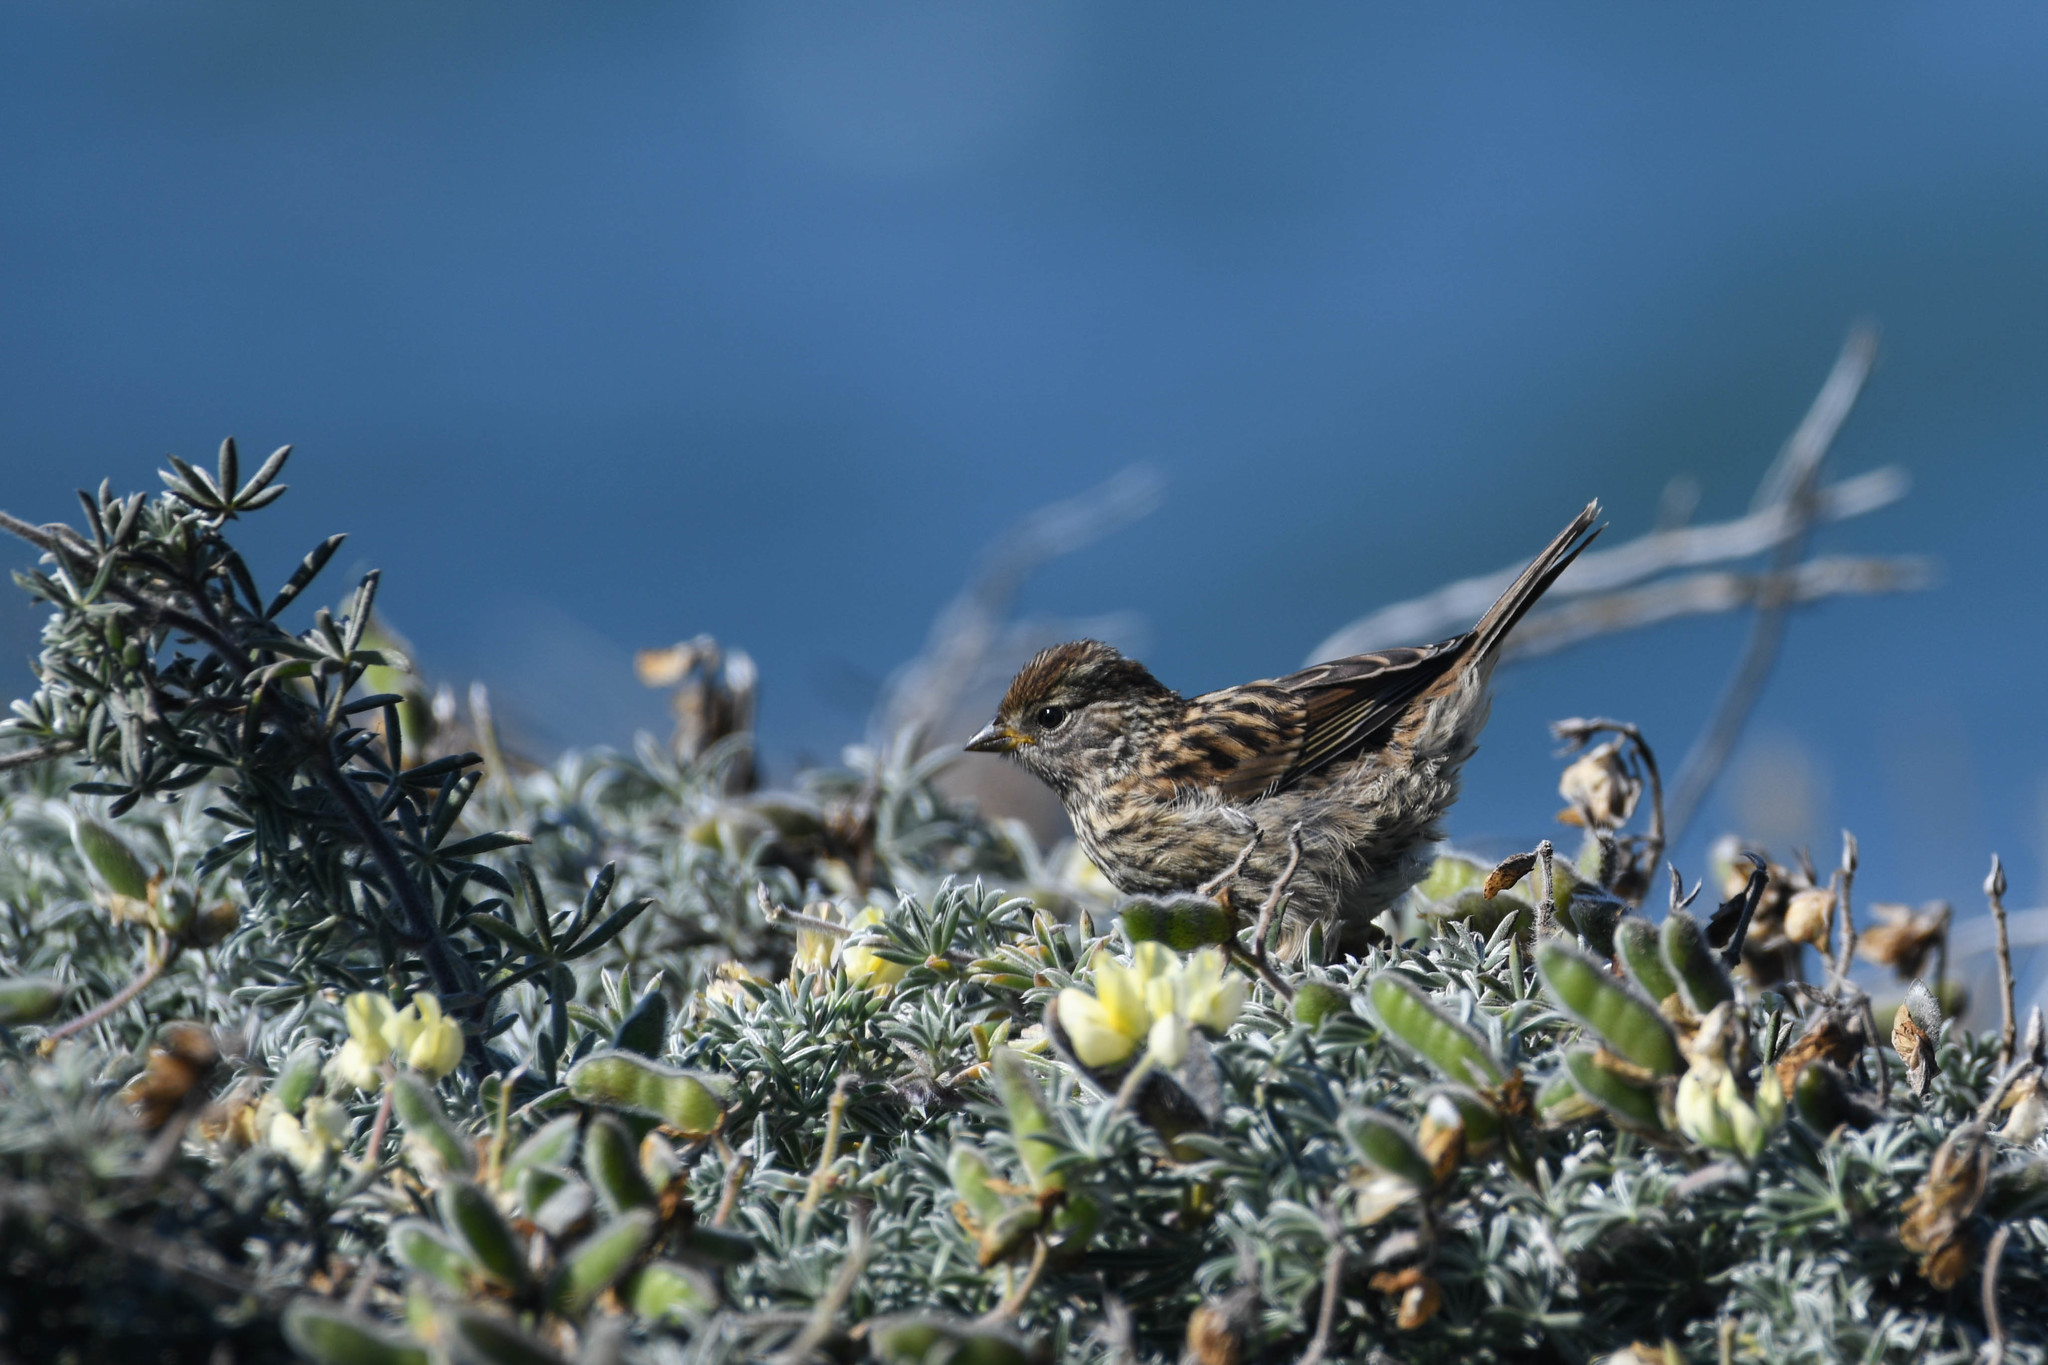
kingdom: Animalia
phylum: Chordata
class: Aves
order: Passeriformes
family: Passerellidae
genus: Zonotrichia
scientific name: Zonotrichia leucophrys
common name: White-crowned sparrow
